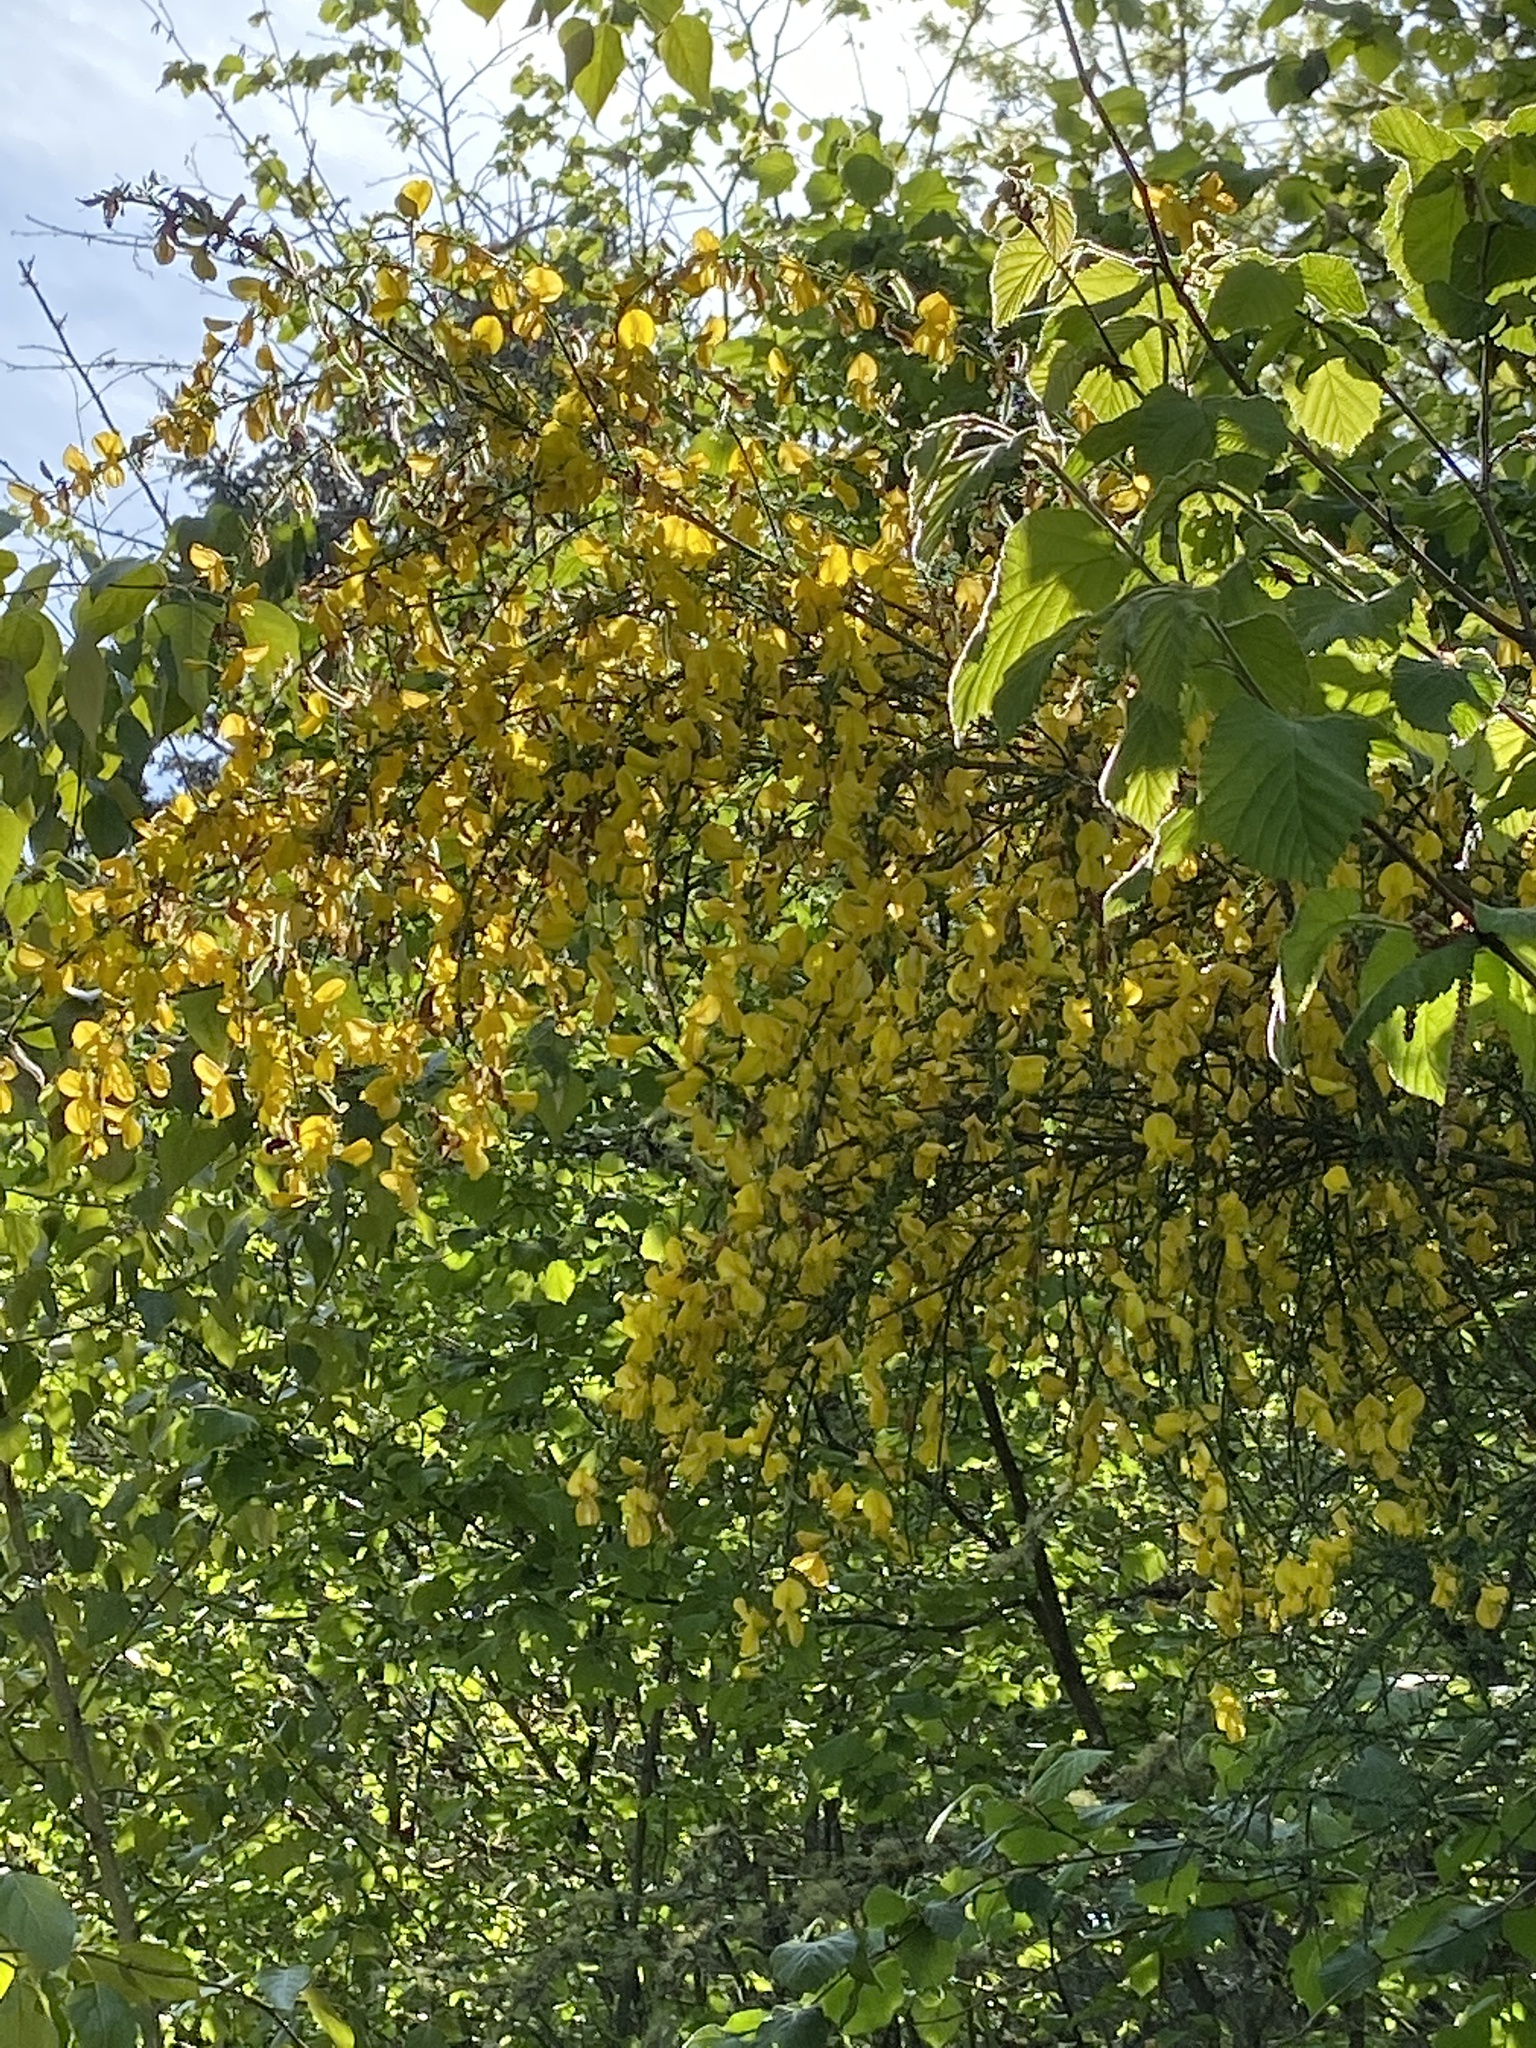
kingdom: Plantae
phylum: Tracheophyta
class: Magnoliopsida
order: Fabales
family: Fabaceae
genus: Cytisus
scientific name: Cytisus scoparius
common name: Scotch broom
